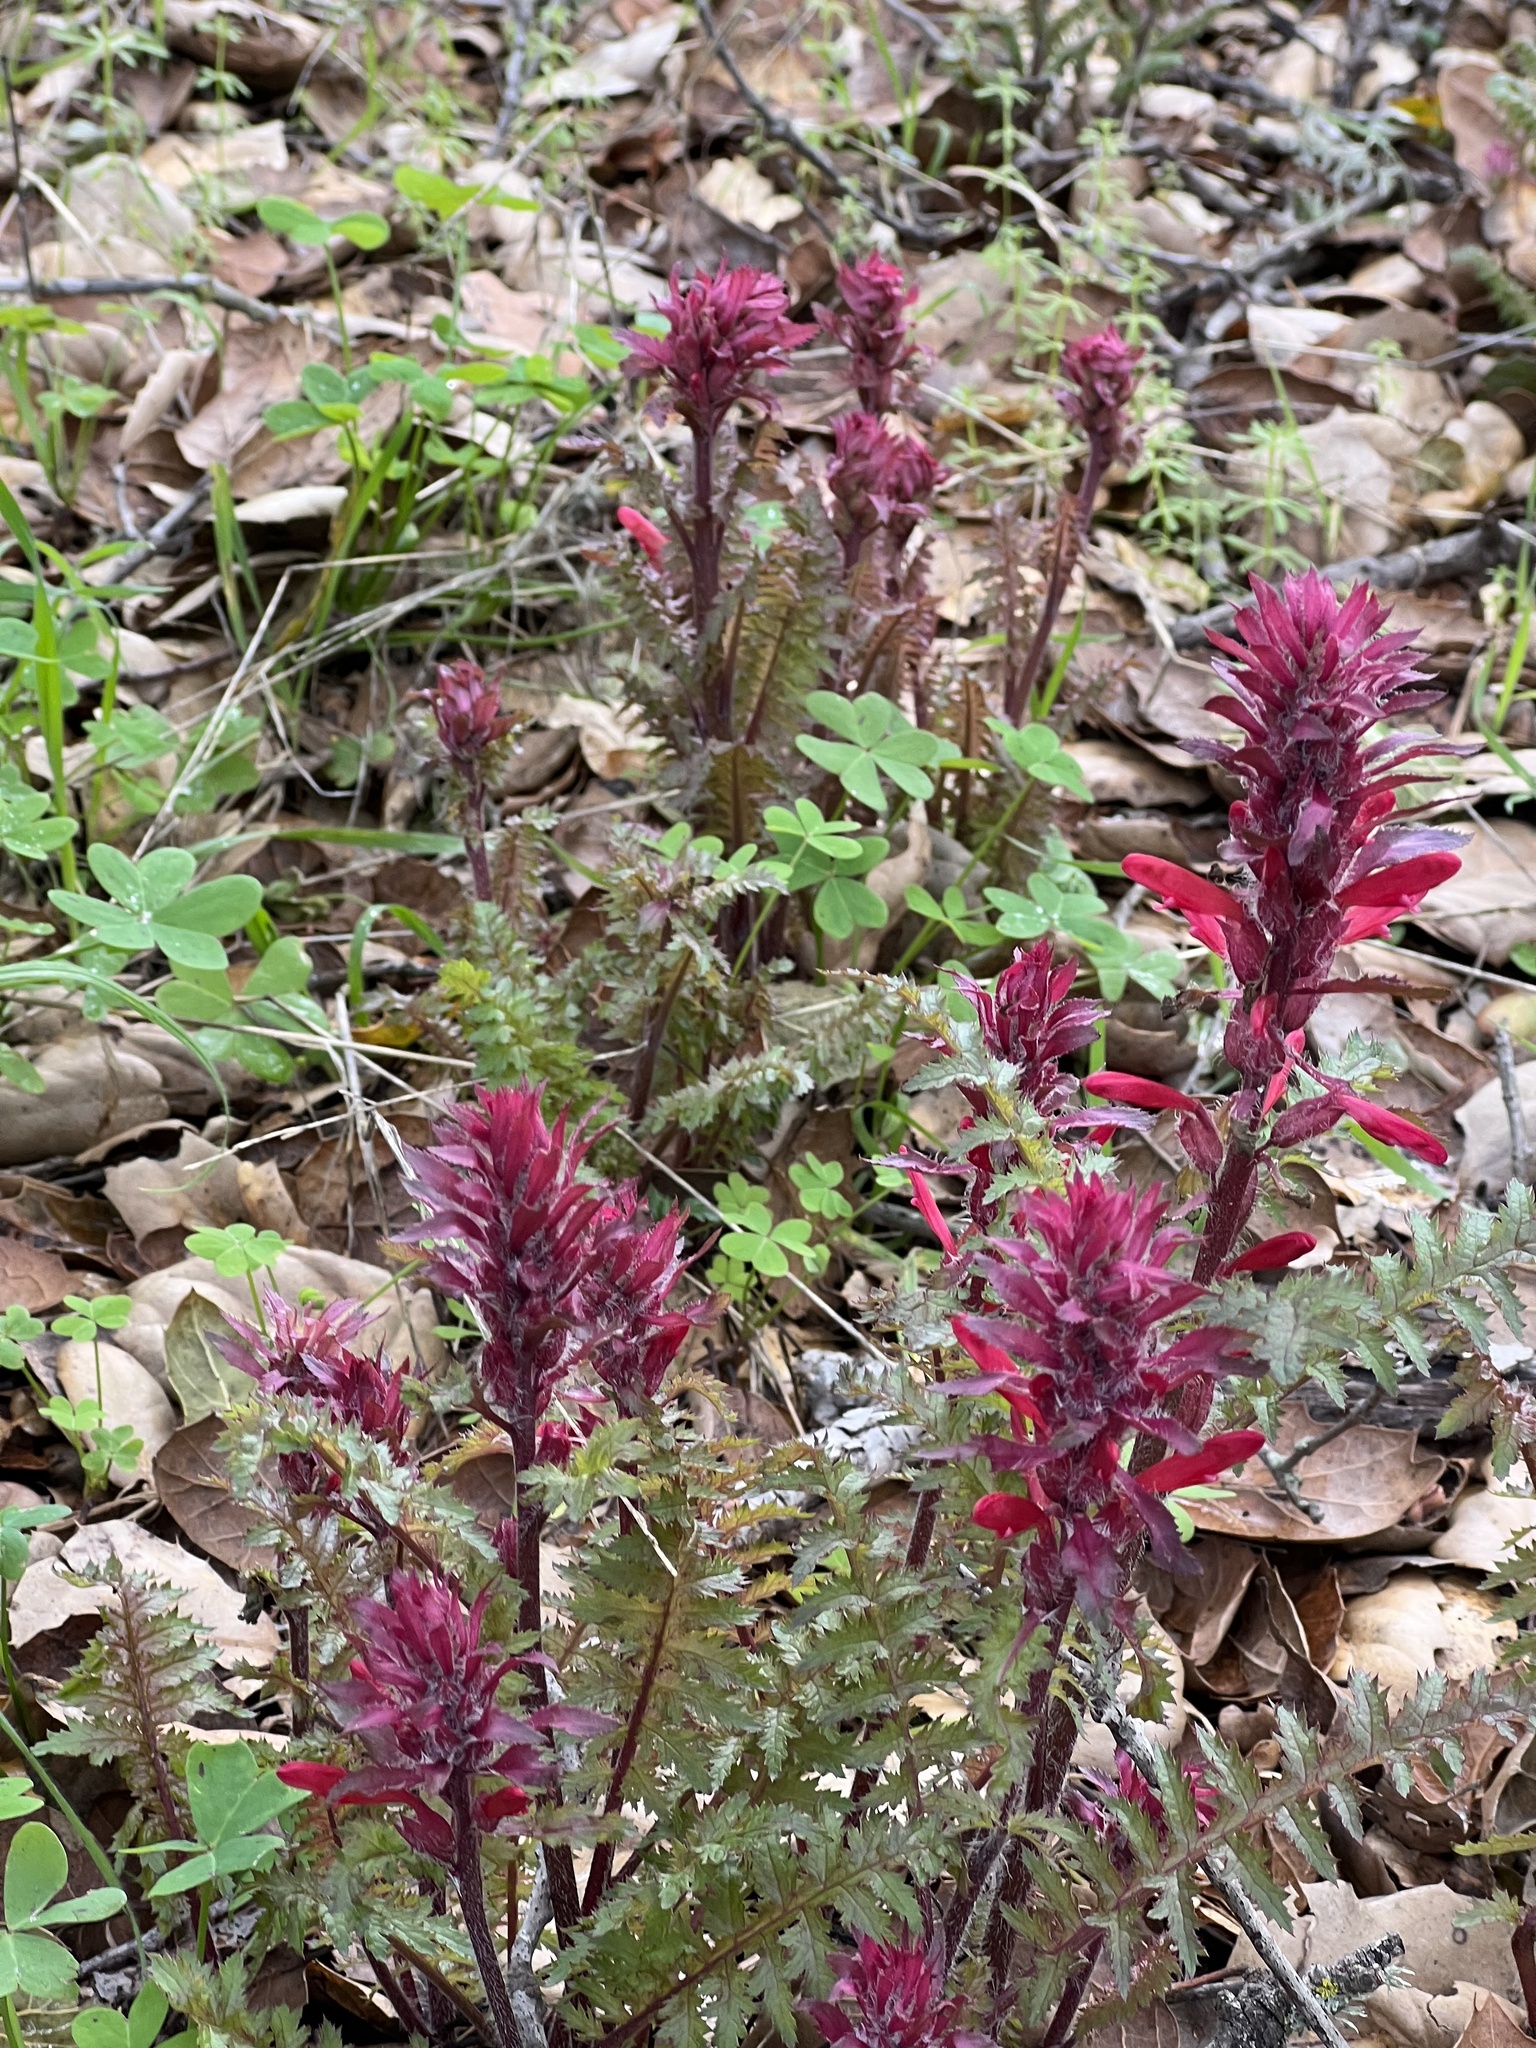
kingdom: Plantae
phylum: Tracheophyta
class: Magnoliopsida
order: Lamiales
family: Orobanchaceae
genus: Pedicularis
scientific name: Pedicularis densiflora
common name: Indian warrior
